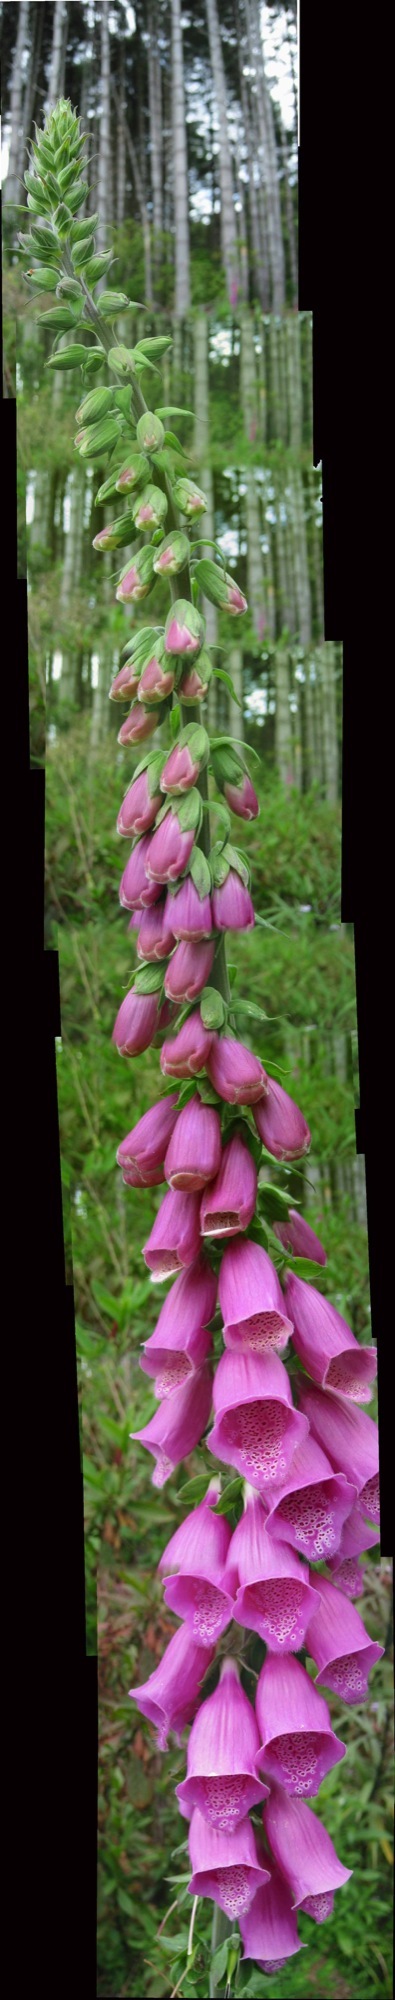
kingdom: Plantae
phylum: Tracheophyta
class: Magnoliopsida
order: Lamiales
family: Plantaginaceae
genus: Digitalis
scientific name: Digitalis purpurea
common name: Foxglove
